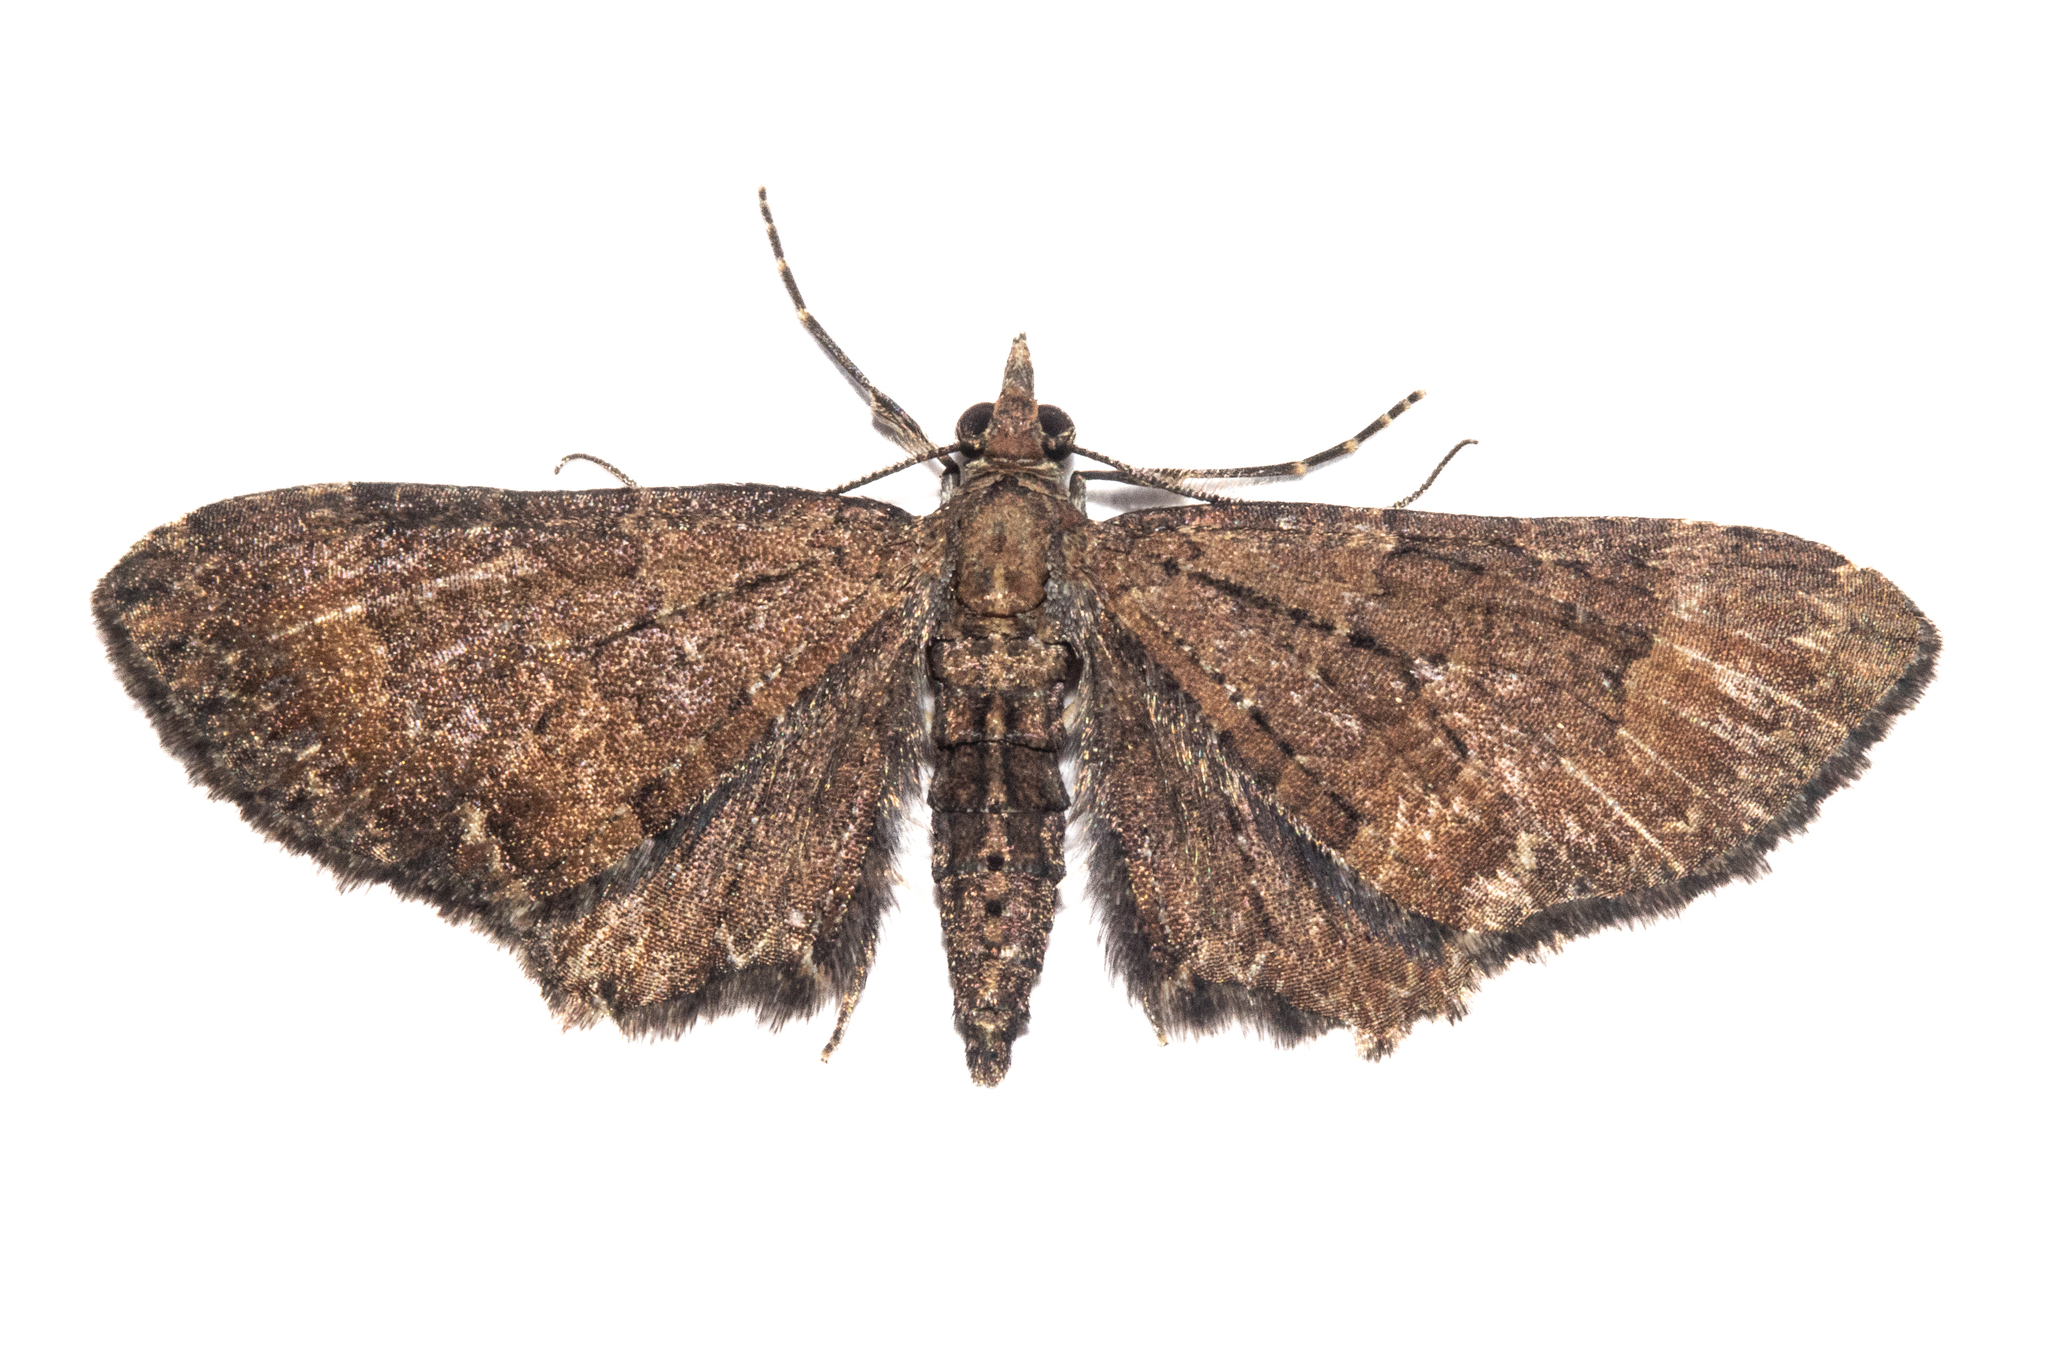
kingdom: Animalia
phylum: Arthropoda
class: Insecta
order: Lepidoptera
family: Geometridae
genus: Pasiphila
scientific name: Pasiphila dryas
